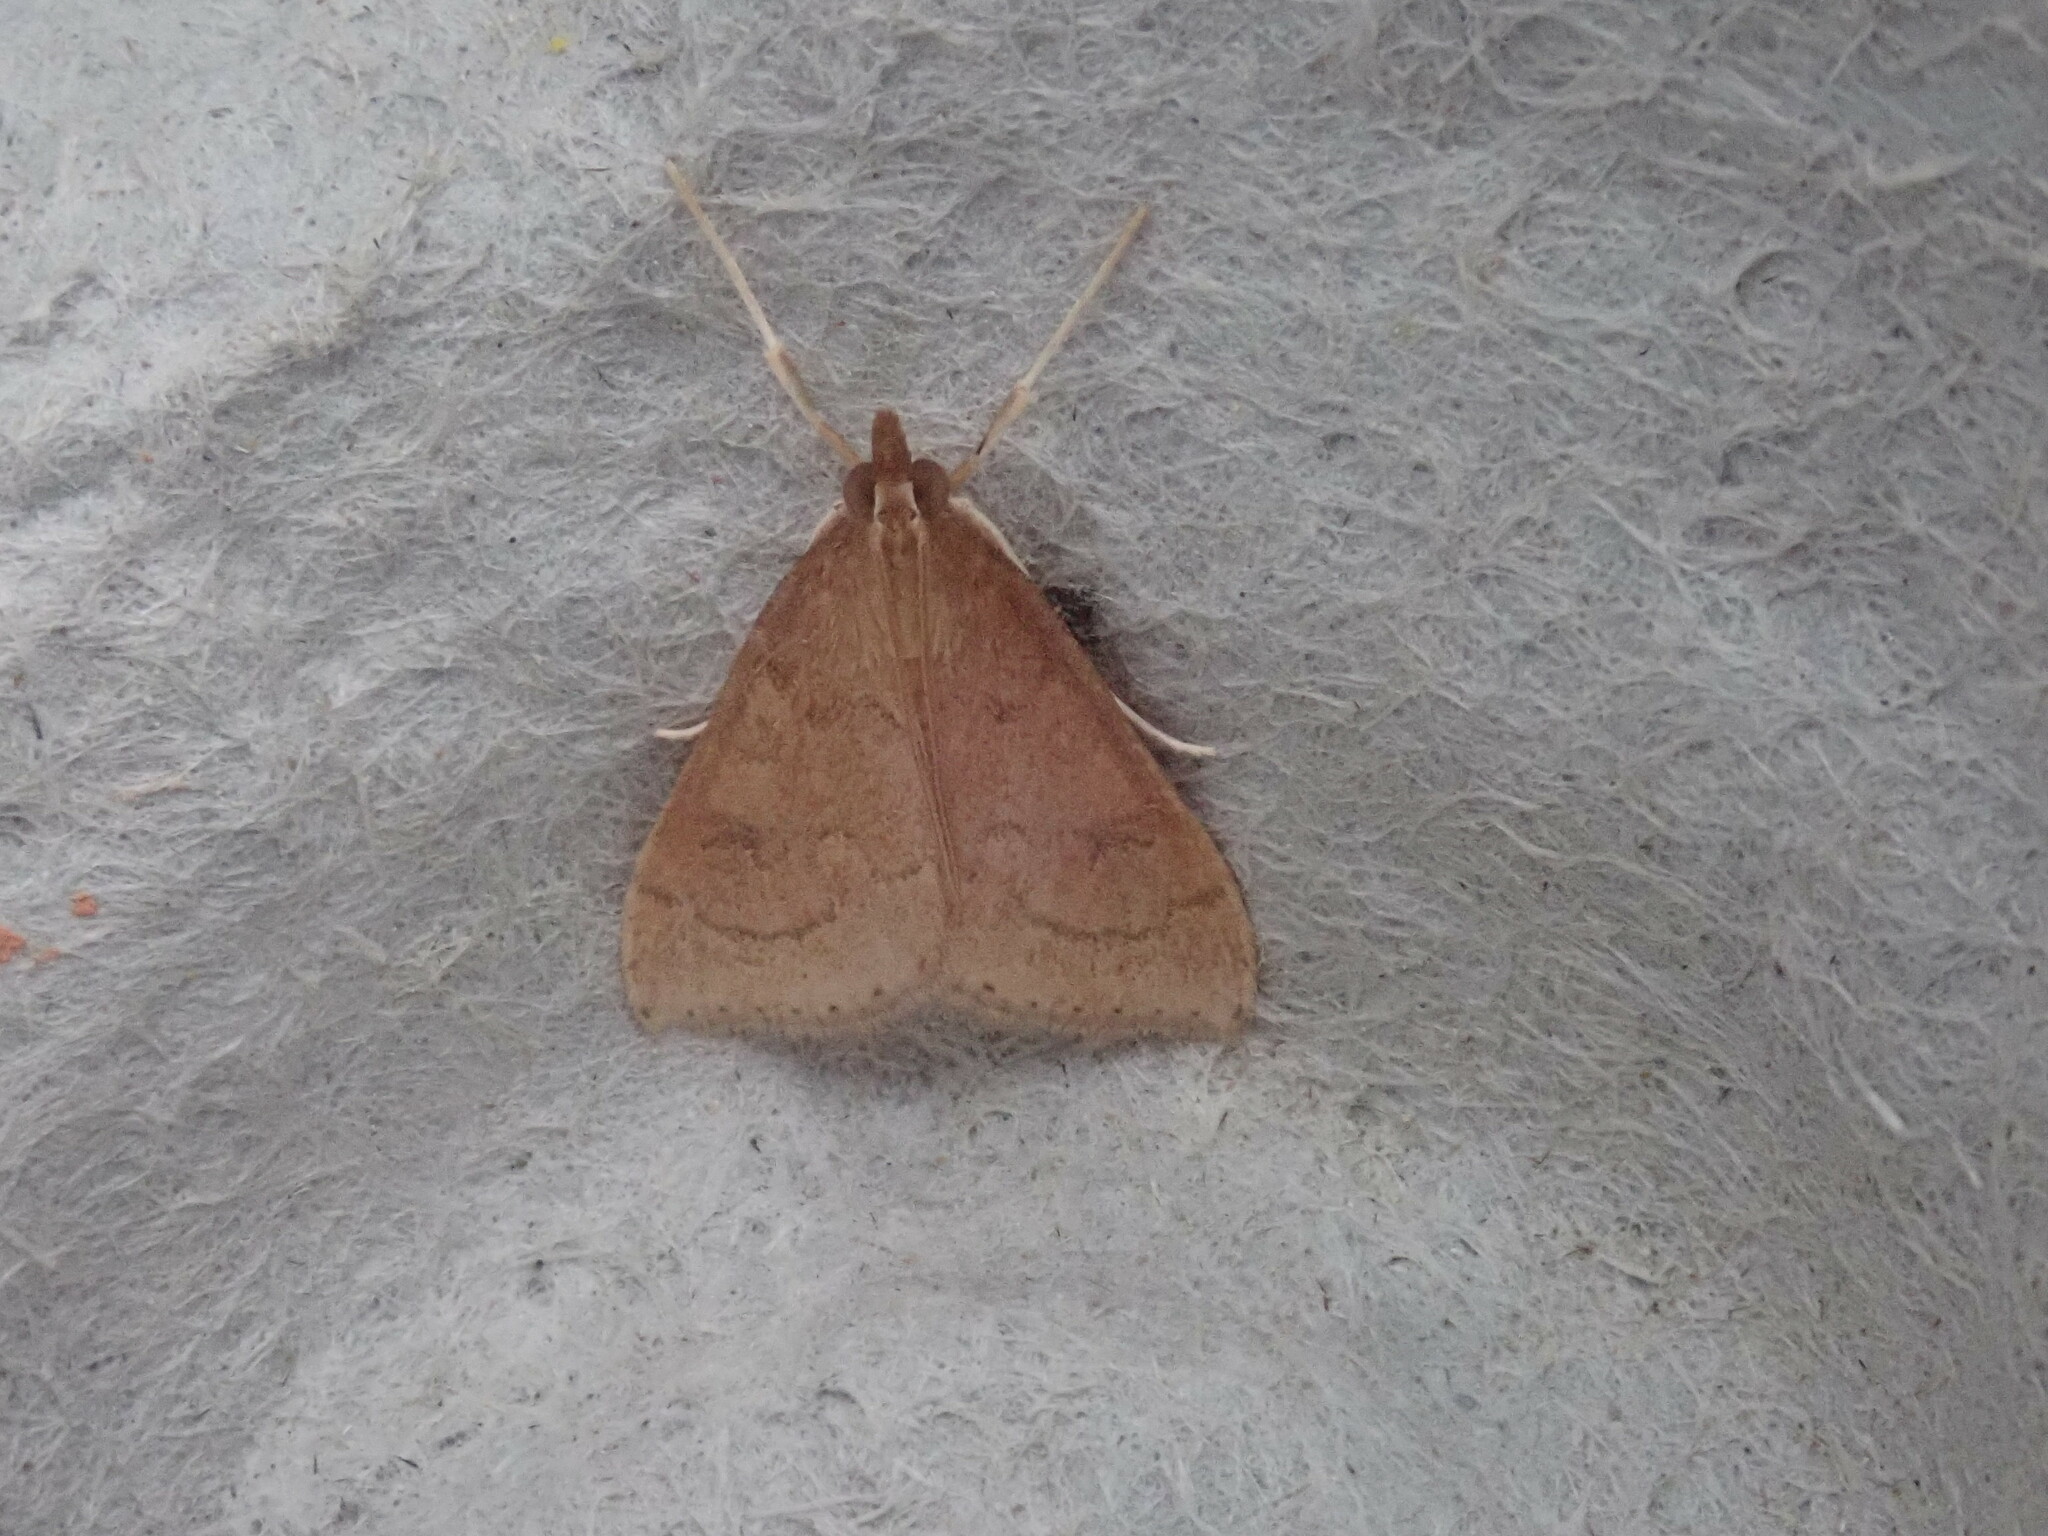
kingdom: Animalia
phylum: Arthropoda
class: Insecta
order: Lepidoptera
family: Crambidae
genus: Udea
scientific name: Udea rubigalis
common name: Celery leaftier moth
